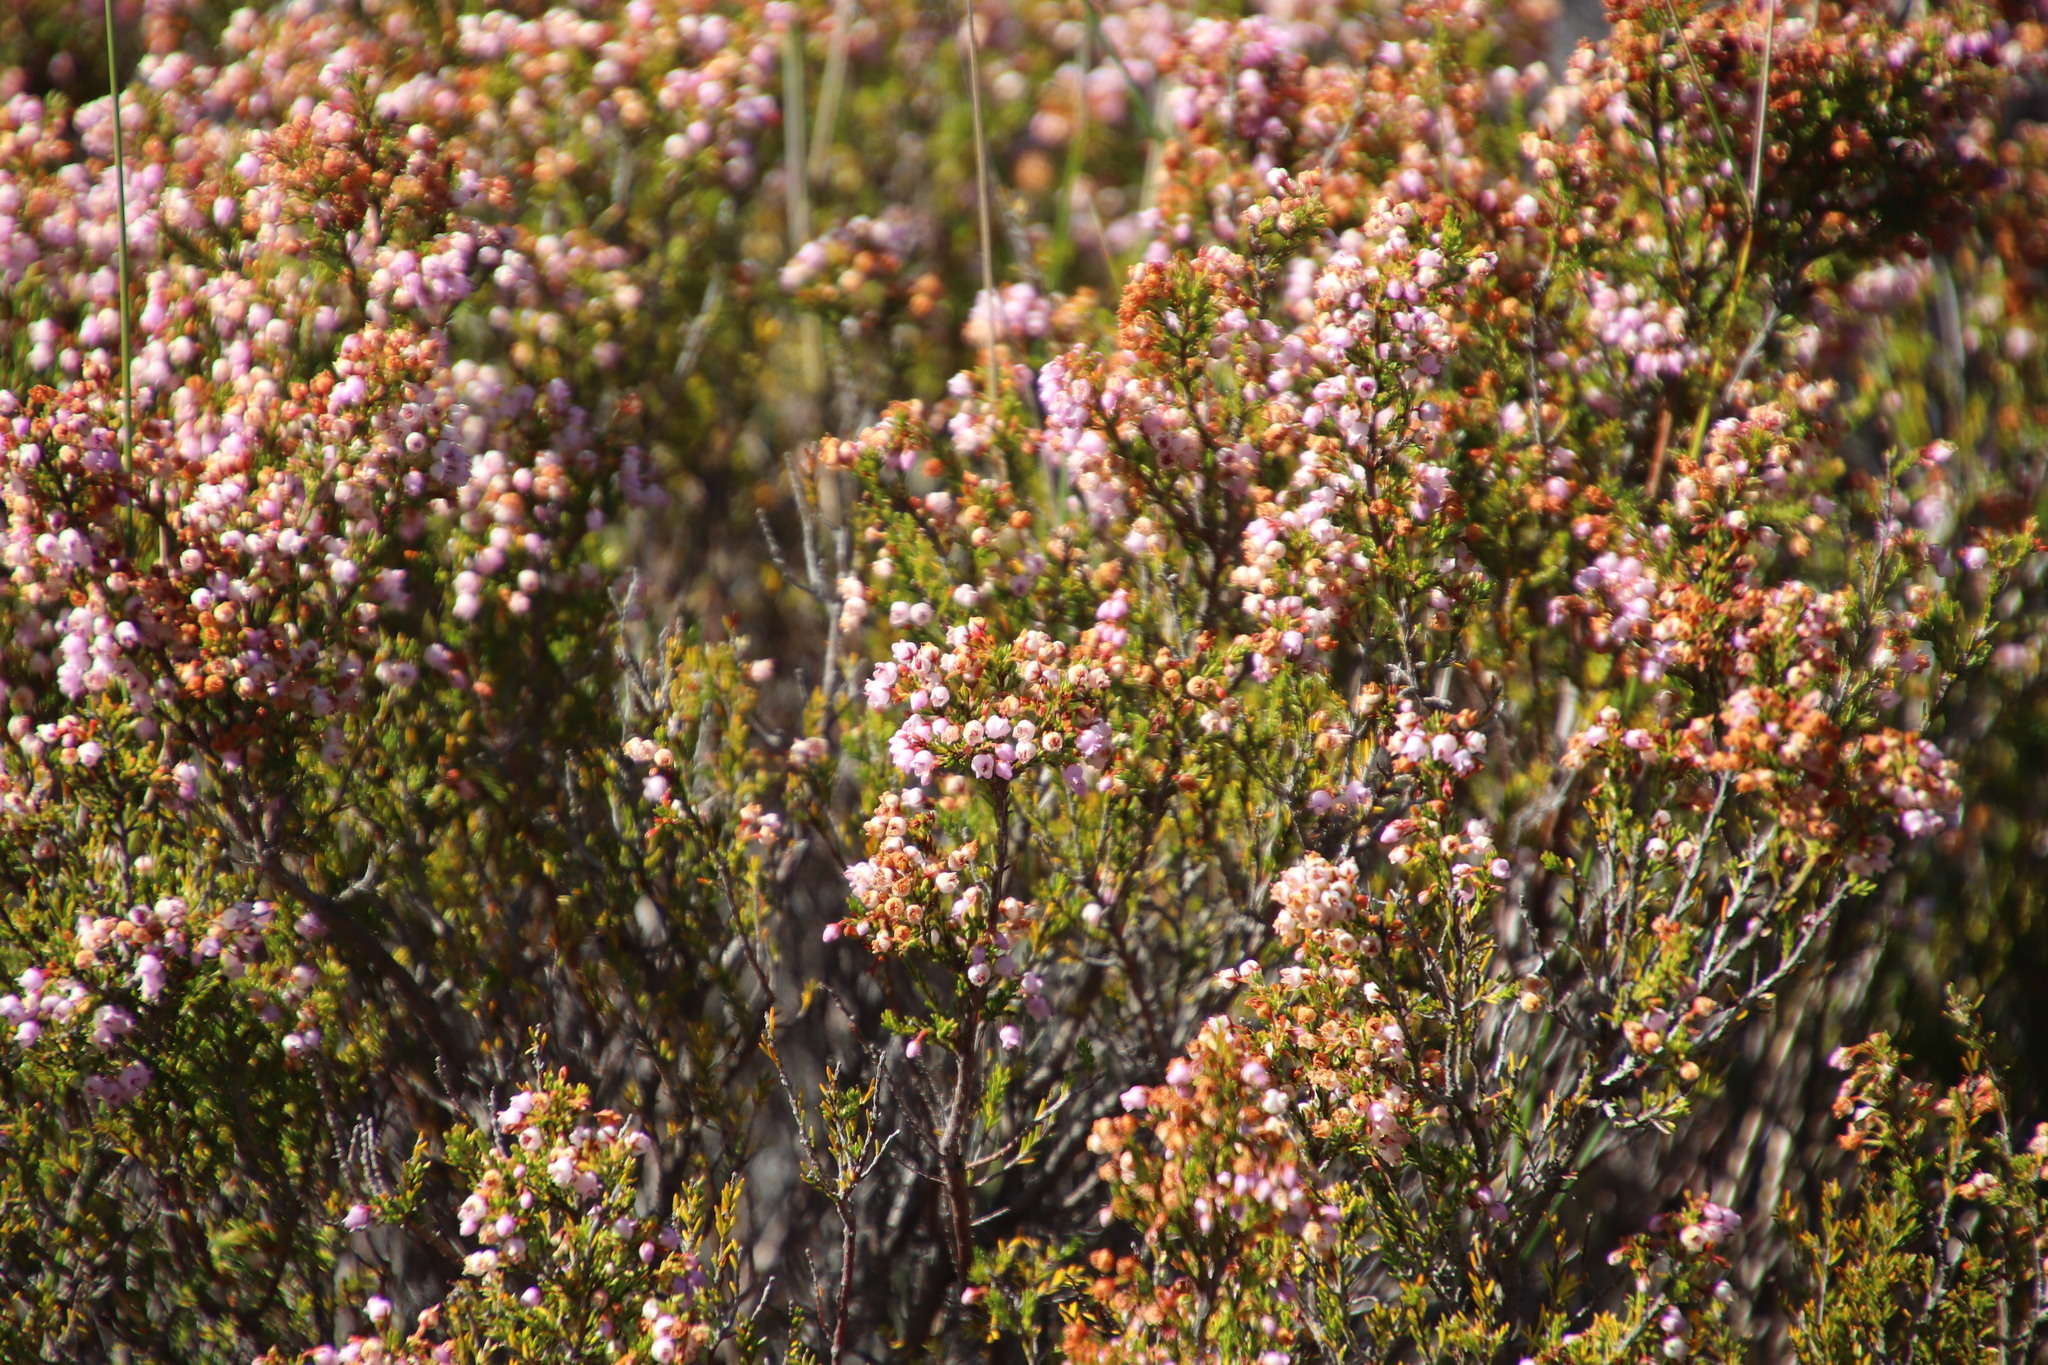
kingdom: Plantae
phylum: Tracheophyta
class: Magnoliopsida
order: Ericales
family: Ericaceae
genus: Erica
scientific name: Erica curvirostris
